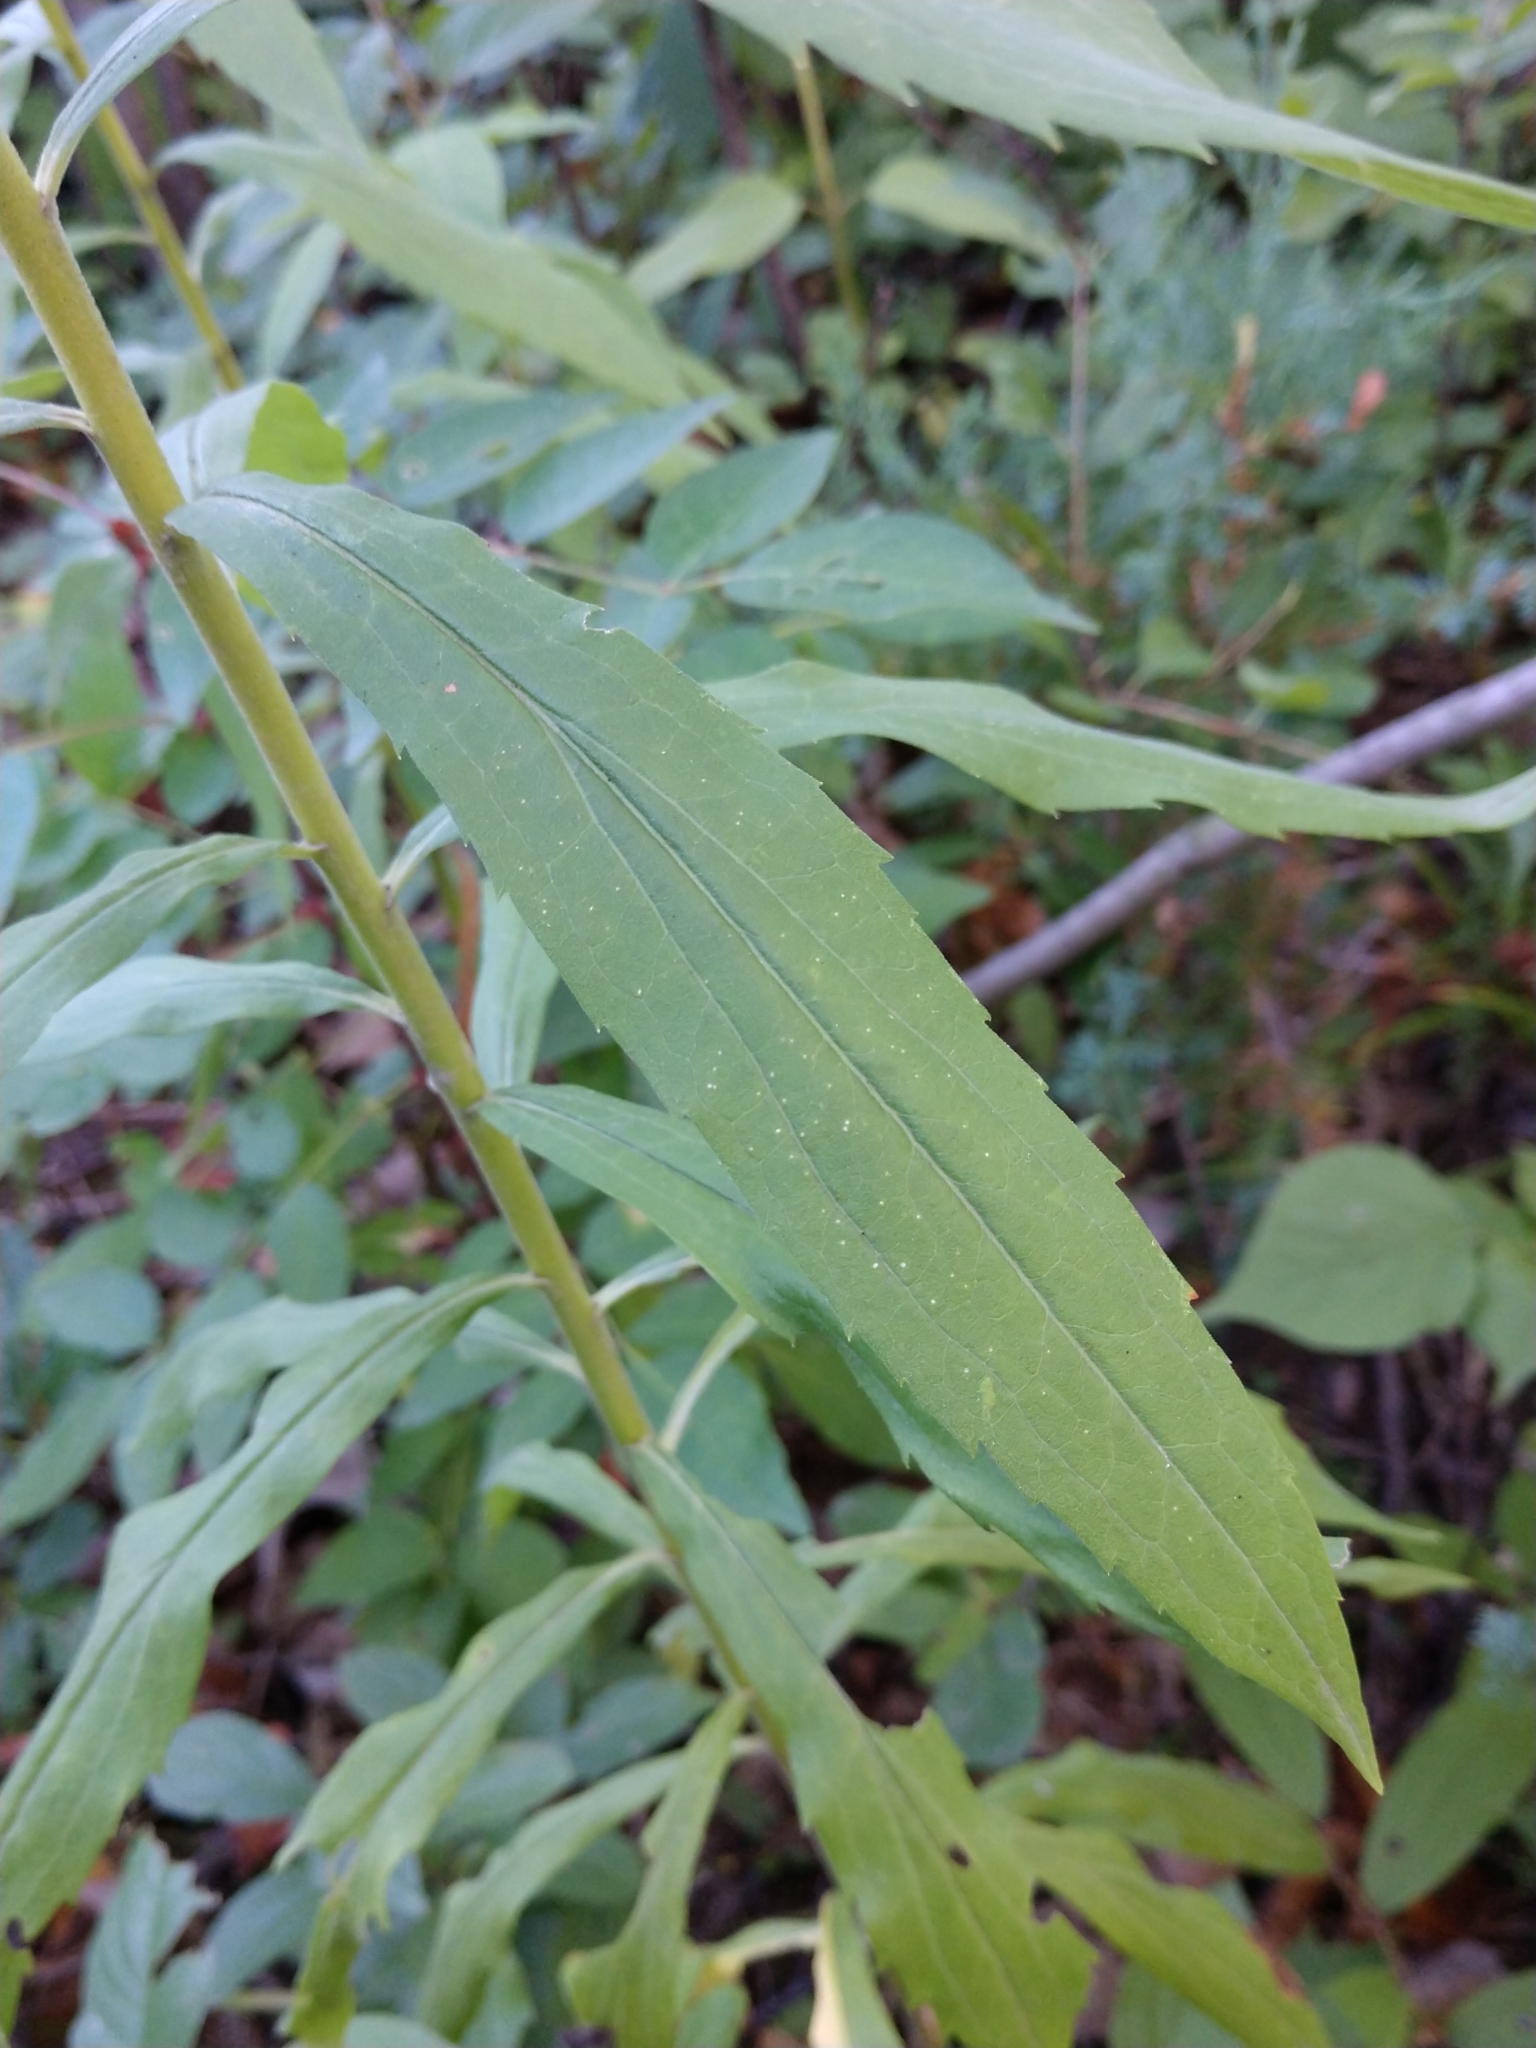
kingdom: Plantae
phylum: Tracheophyta
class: Magnoliopsida
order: Asterales
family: Asteraceae
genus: Solidago
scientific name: Solidago canadensis
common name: Canada goldenrod
